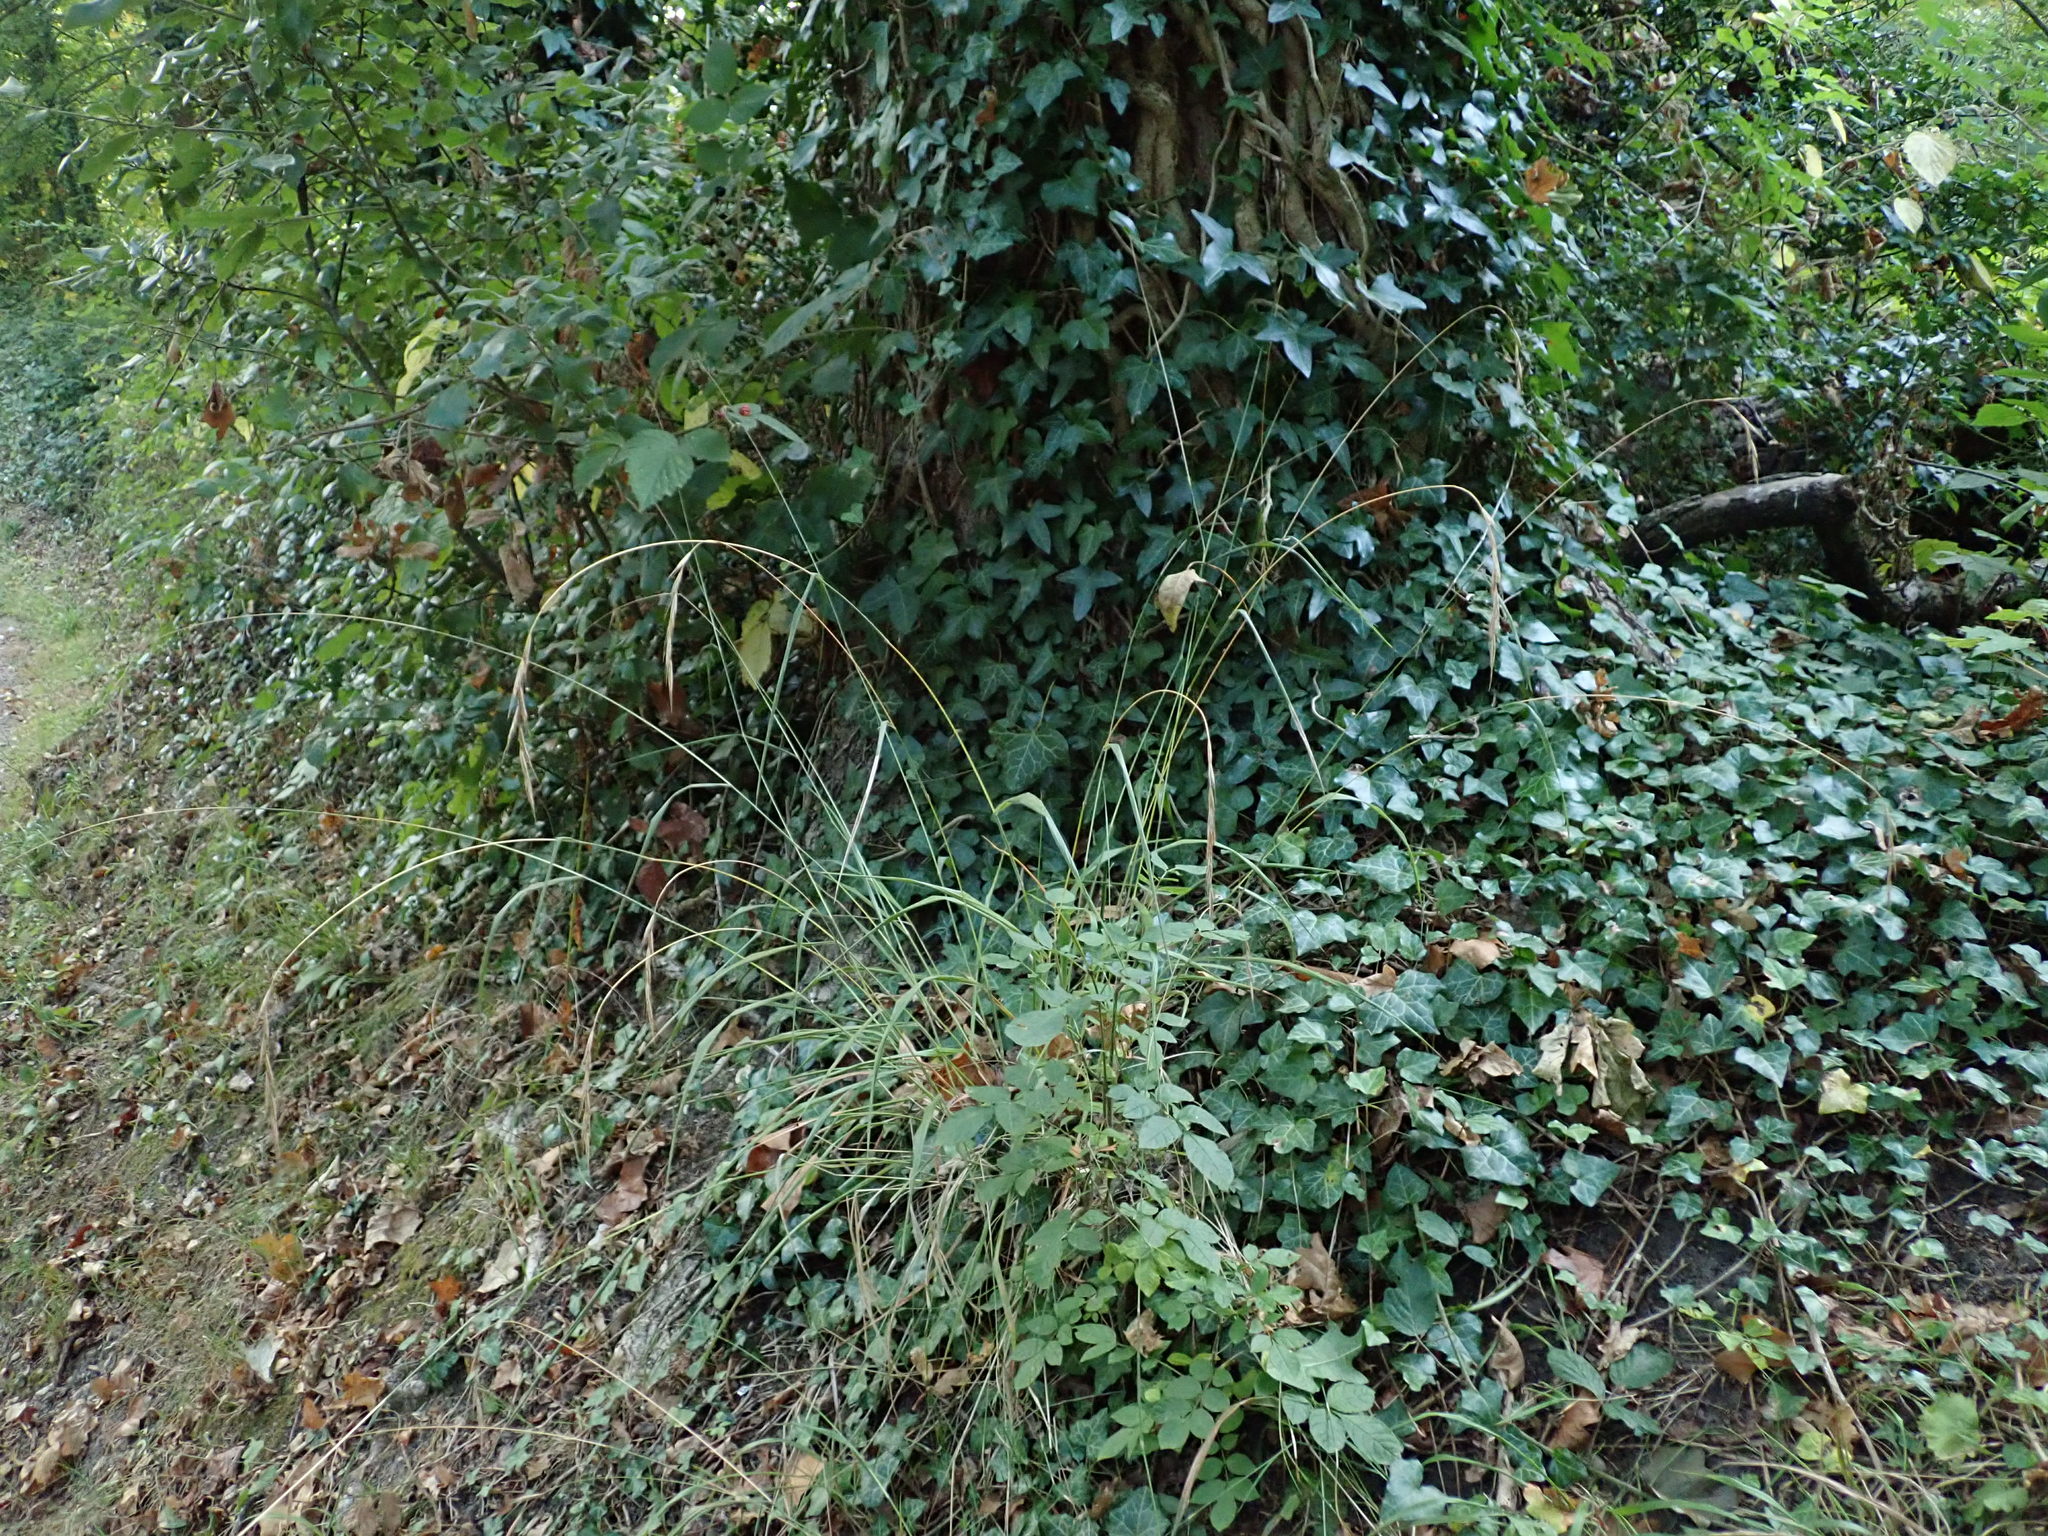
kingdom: Plantae
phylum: Tracheophyta
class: Liliopsida
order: Poales
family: Poaceae
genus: Brachypodium
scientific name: Brachypodium sylvaticum
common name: False-brome
